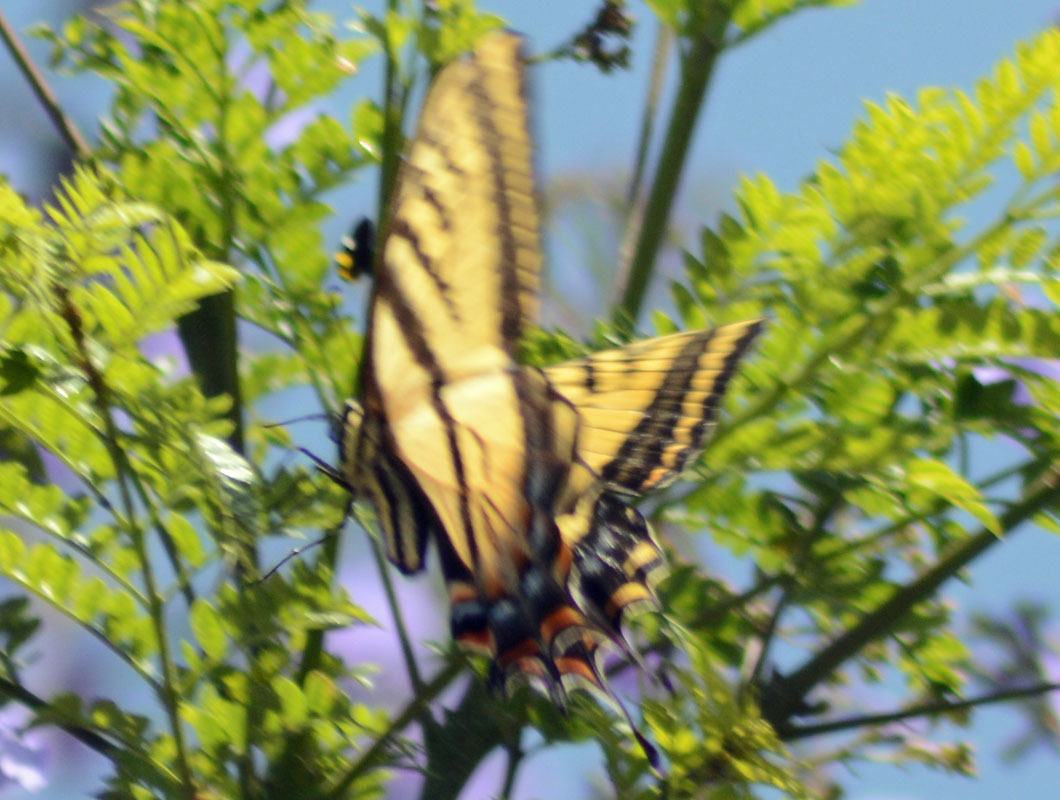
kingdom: Animalia
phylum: Arthropoda
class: Insecta
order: Lepidoptera
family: Papilionidae
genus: Papilio
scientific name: Papilio multicaudata
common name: Two-tailed tiger swallowtail
